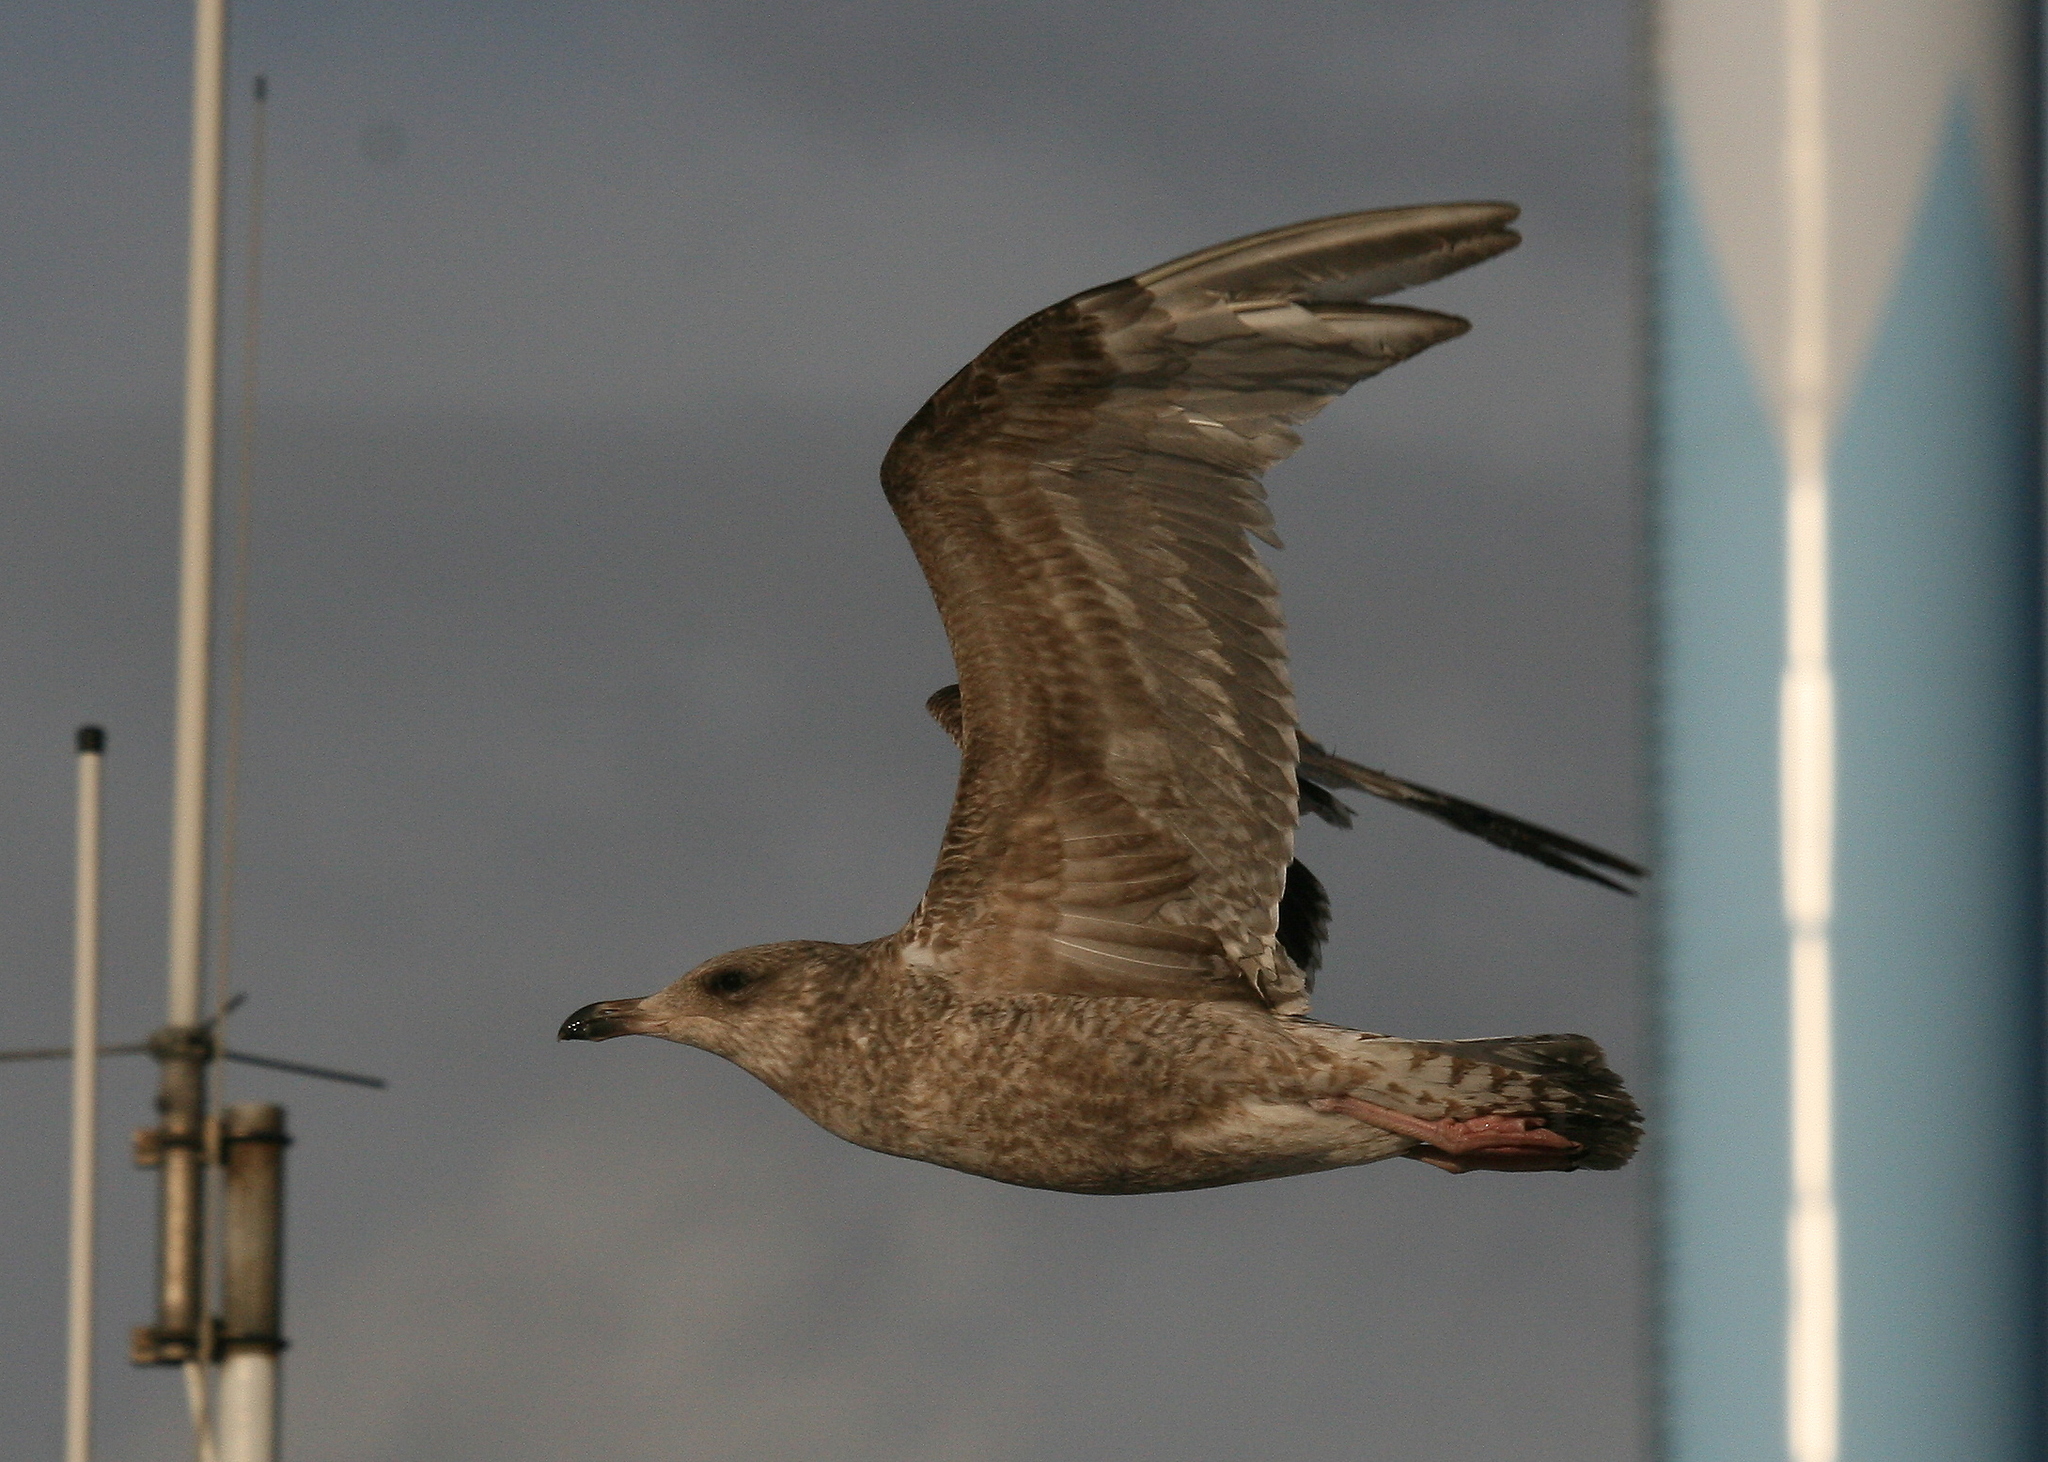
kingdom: Animalia
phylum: Chordata
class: Aves
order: Charadriiformes
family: Laridae
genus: Larus
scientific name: Larus argentatus
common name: Herring gull
